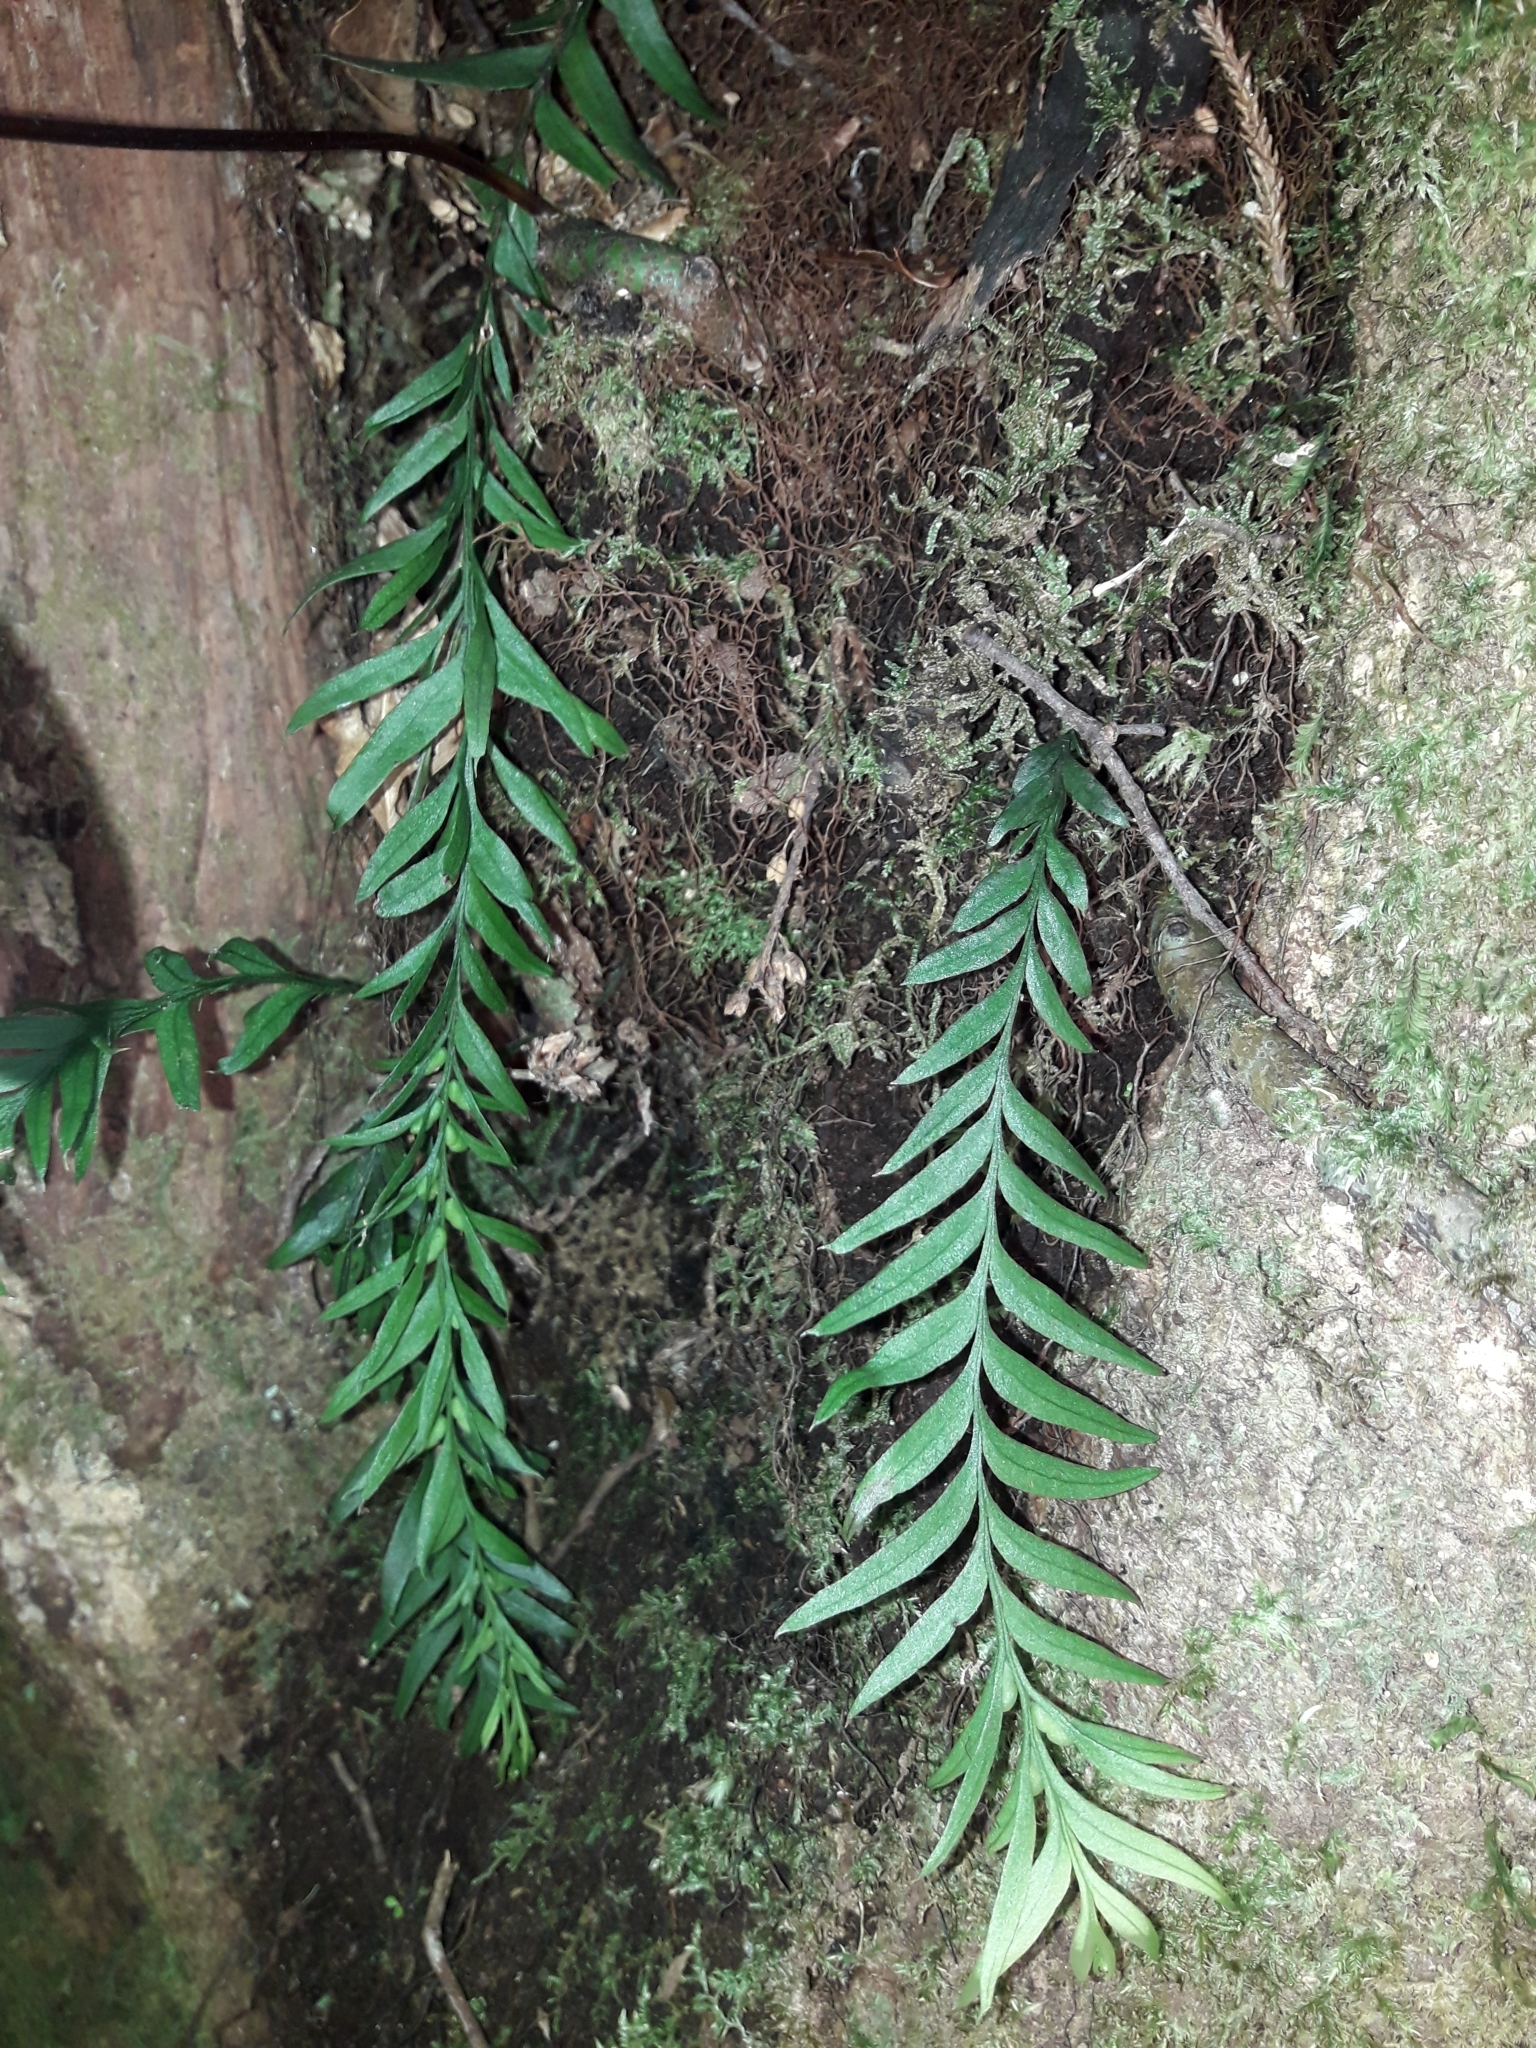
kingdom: Plantae
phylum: Tracheophyta
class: Polypodiopsida
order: Psilotales
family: Psilotaceae
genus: Tmesipteris
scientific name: Tmesipteris elongata
